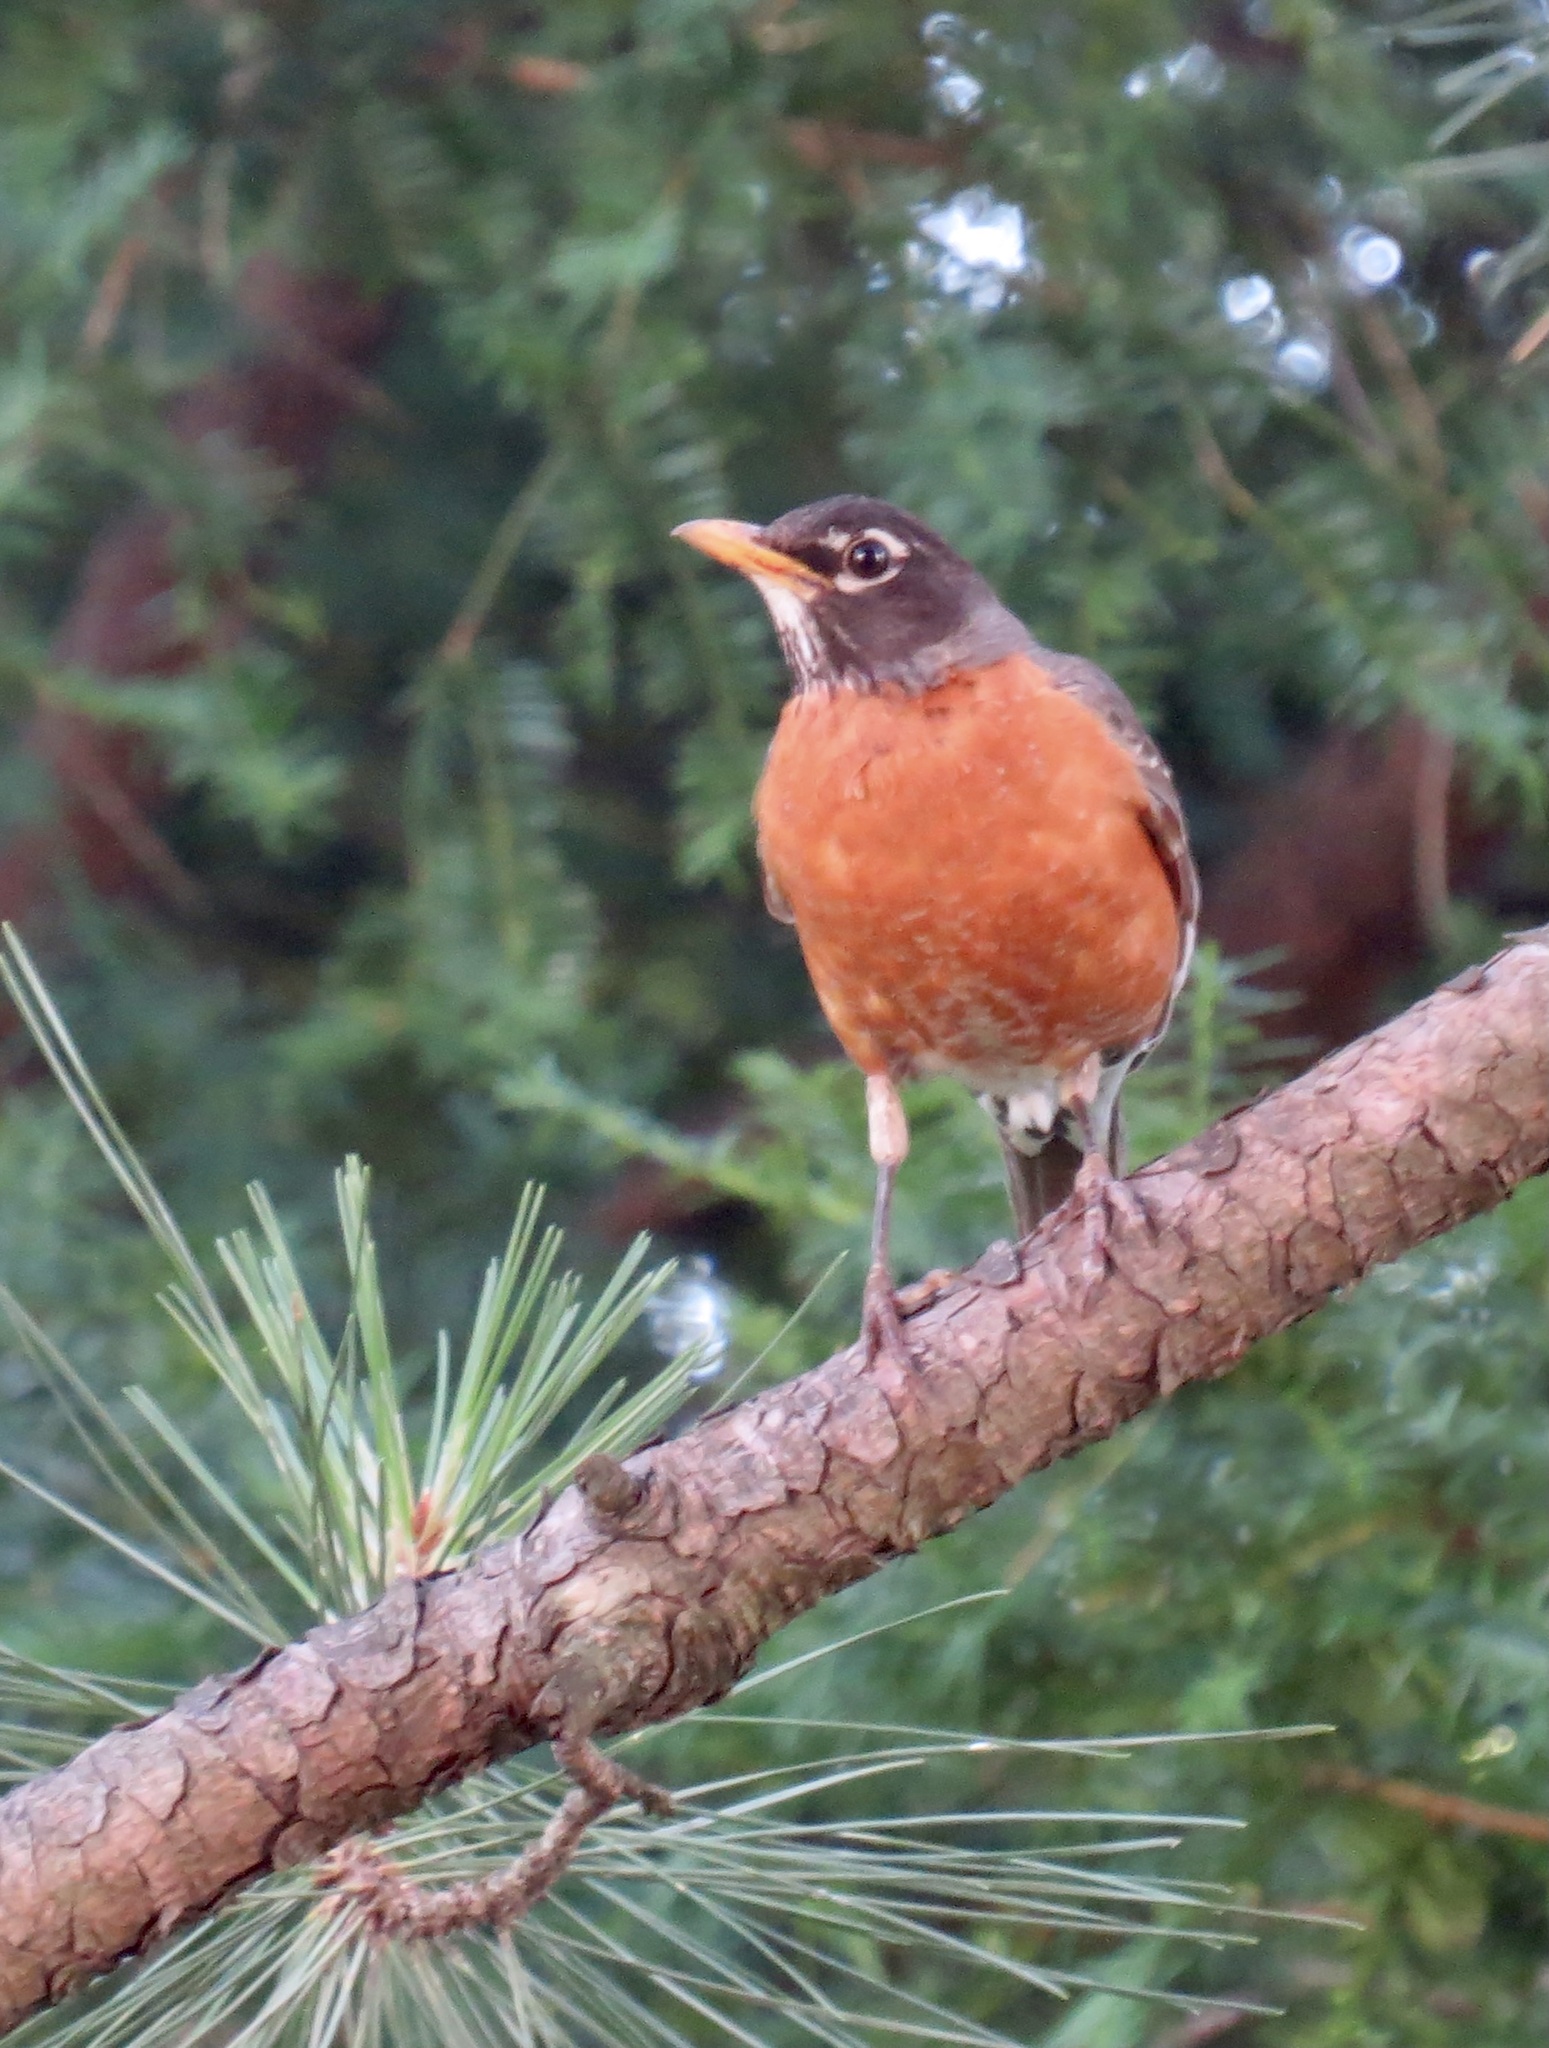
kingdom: Animalia
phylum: Chordata
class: Aves
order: Passeriformes
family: Turdidae
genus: Turdus
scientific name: Turdus migratorius
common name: American robin
